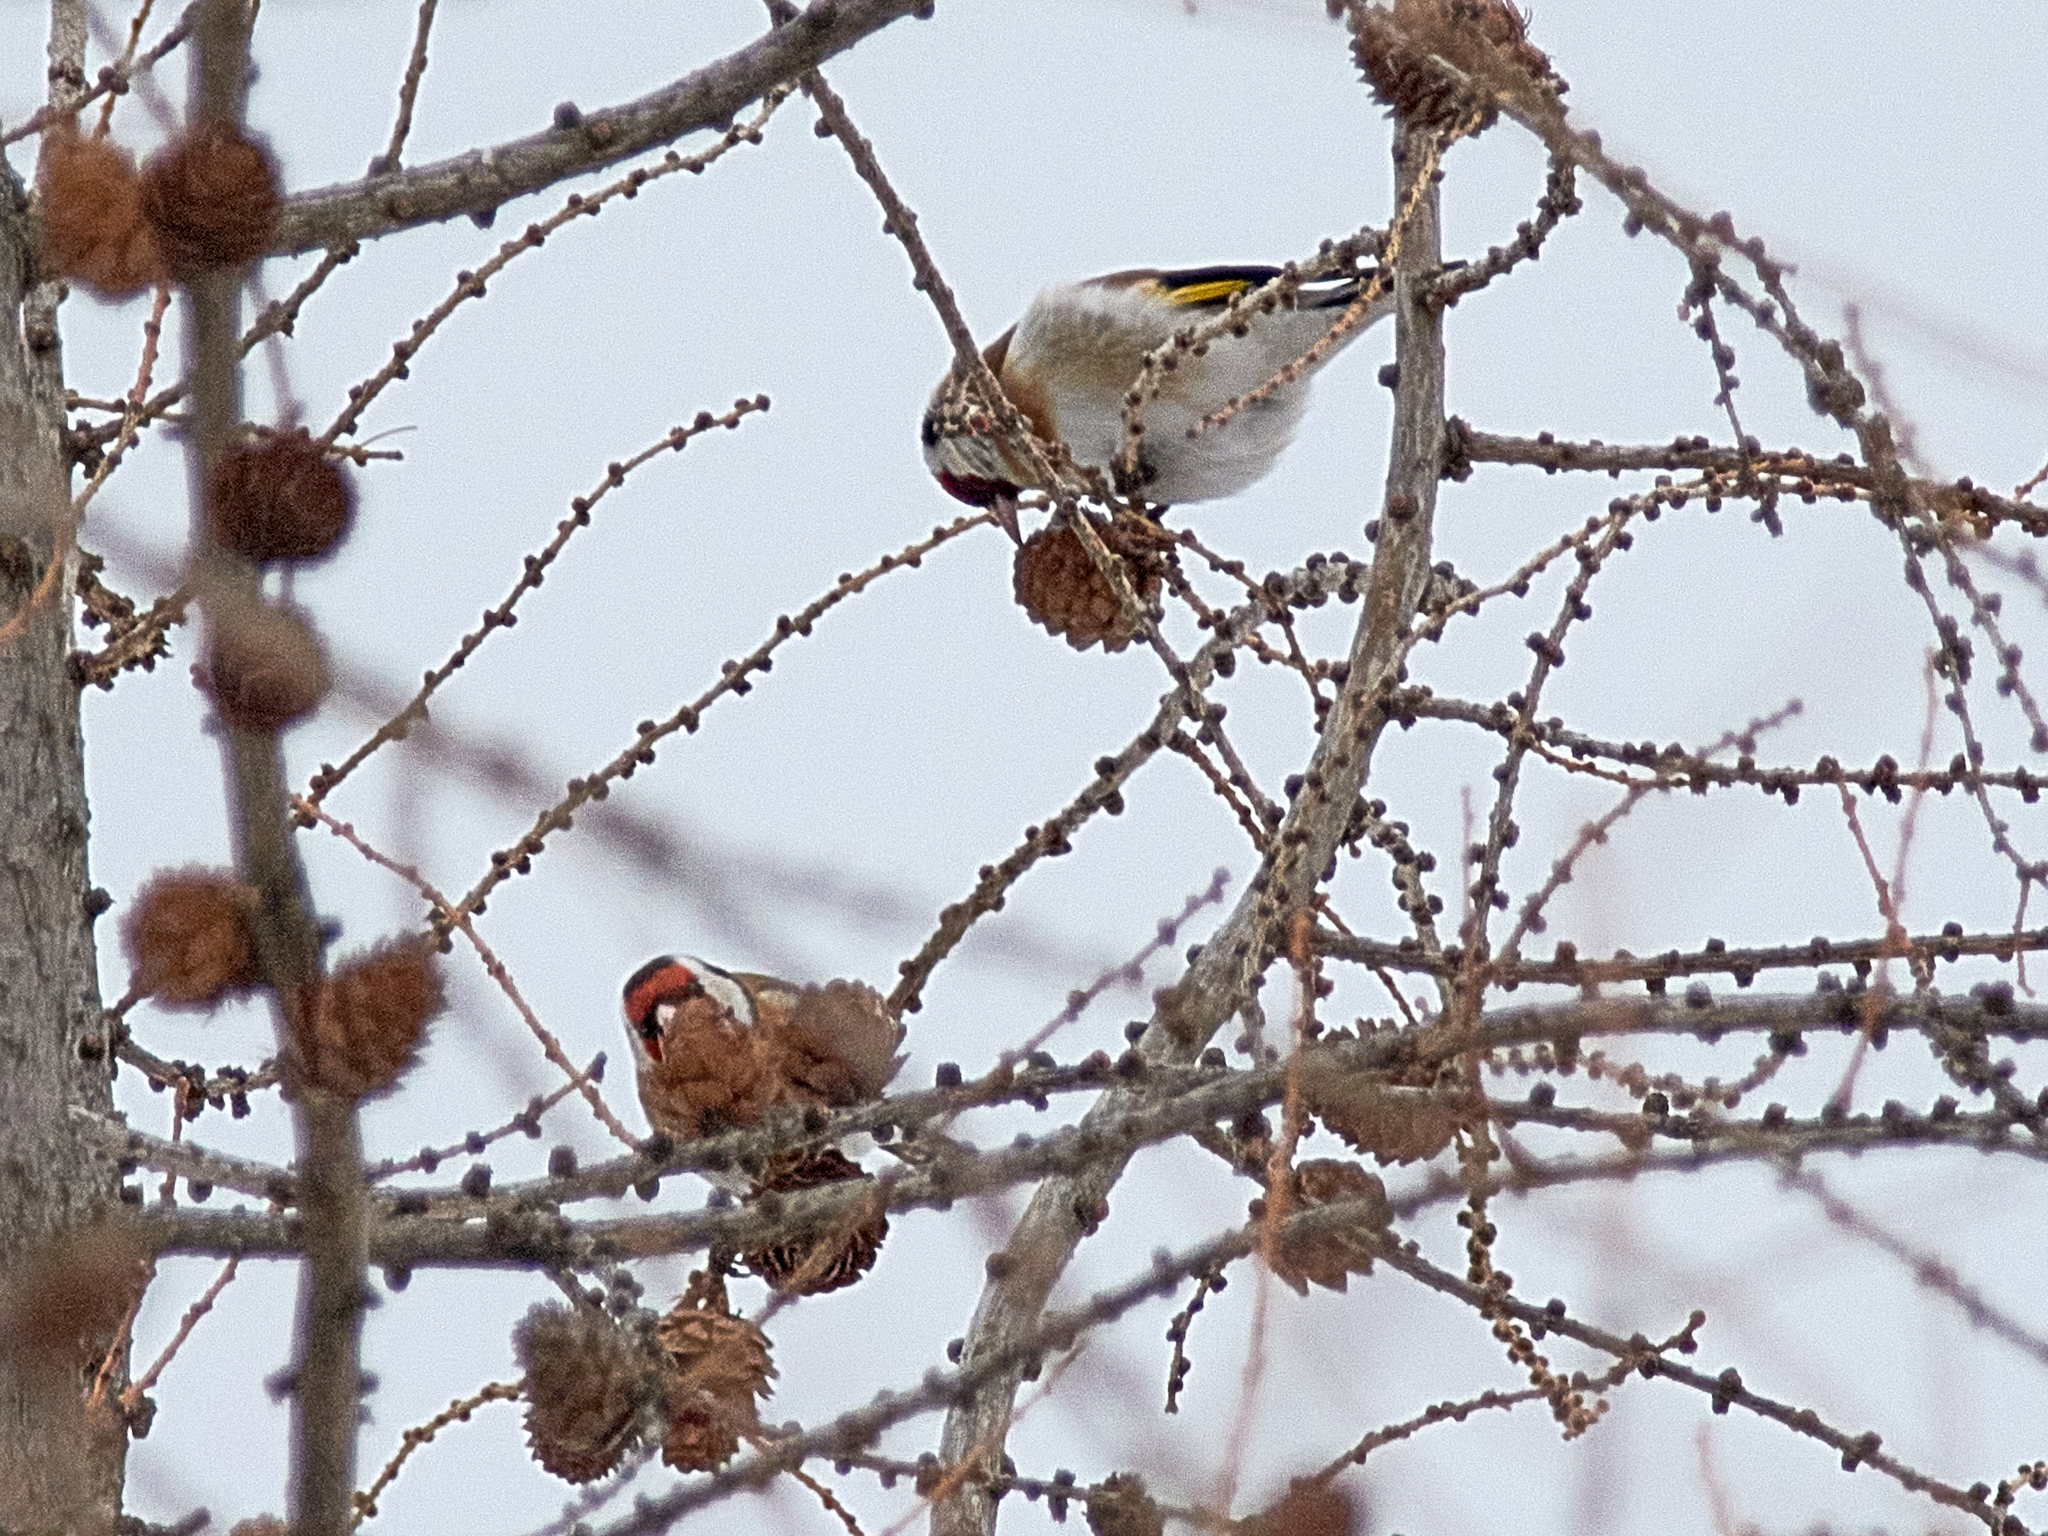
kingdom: Animalia
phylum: Chordata
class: Aves
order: Passeriformes
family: Fringillidae
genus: Carduelis
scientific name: Carduelis carduelis
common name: European goldfinch
